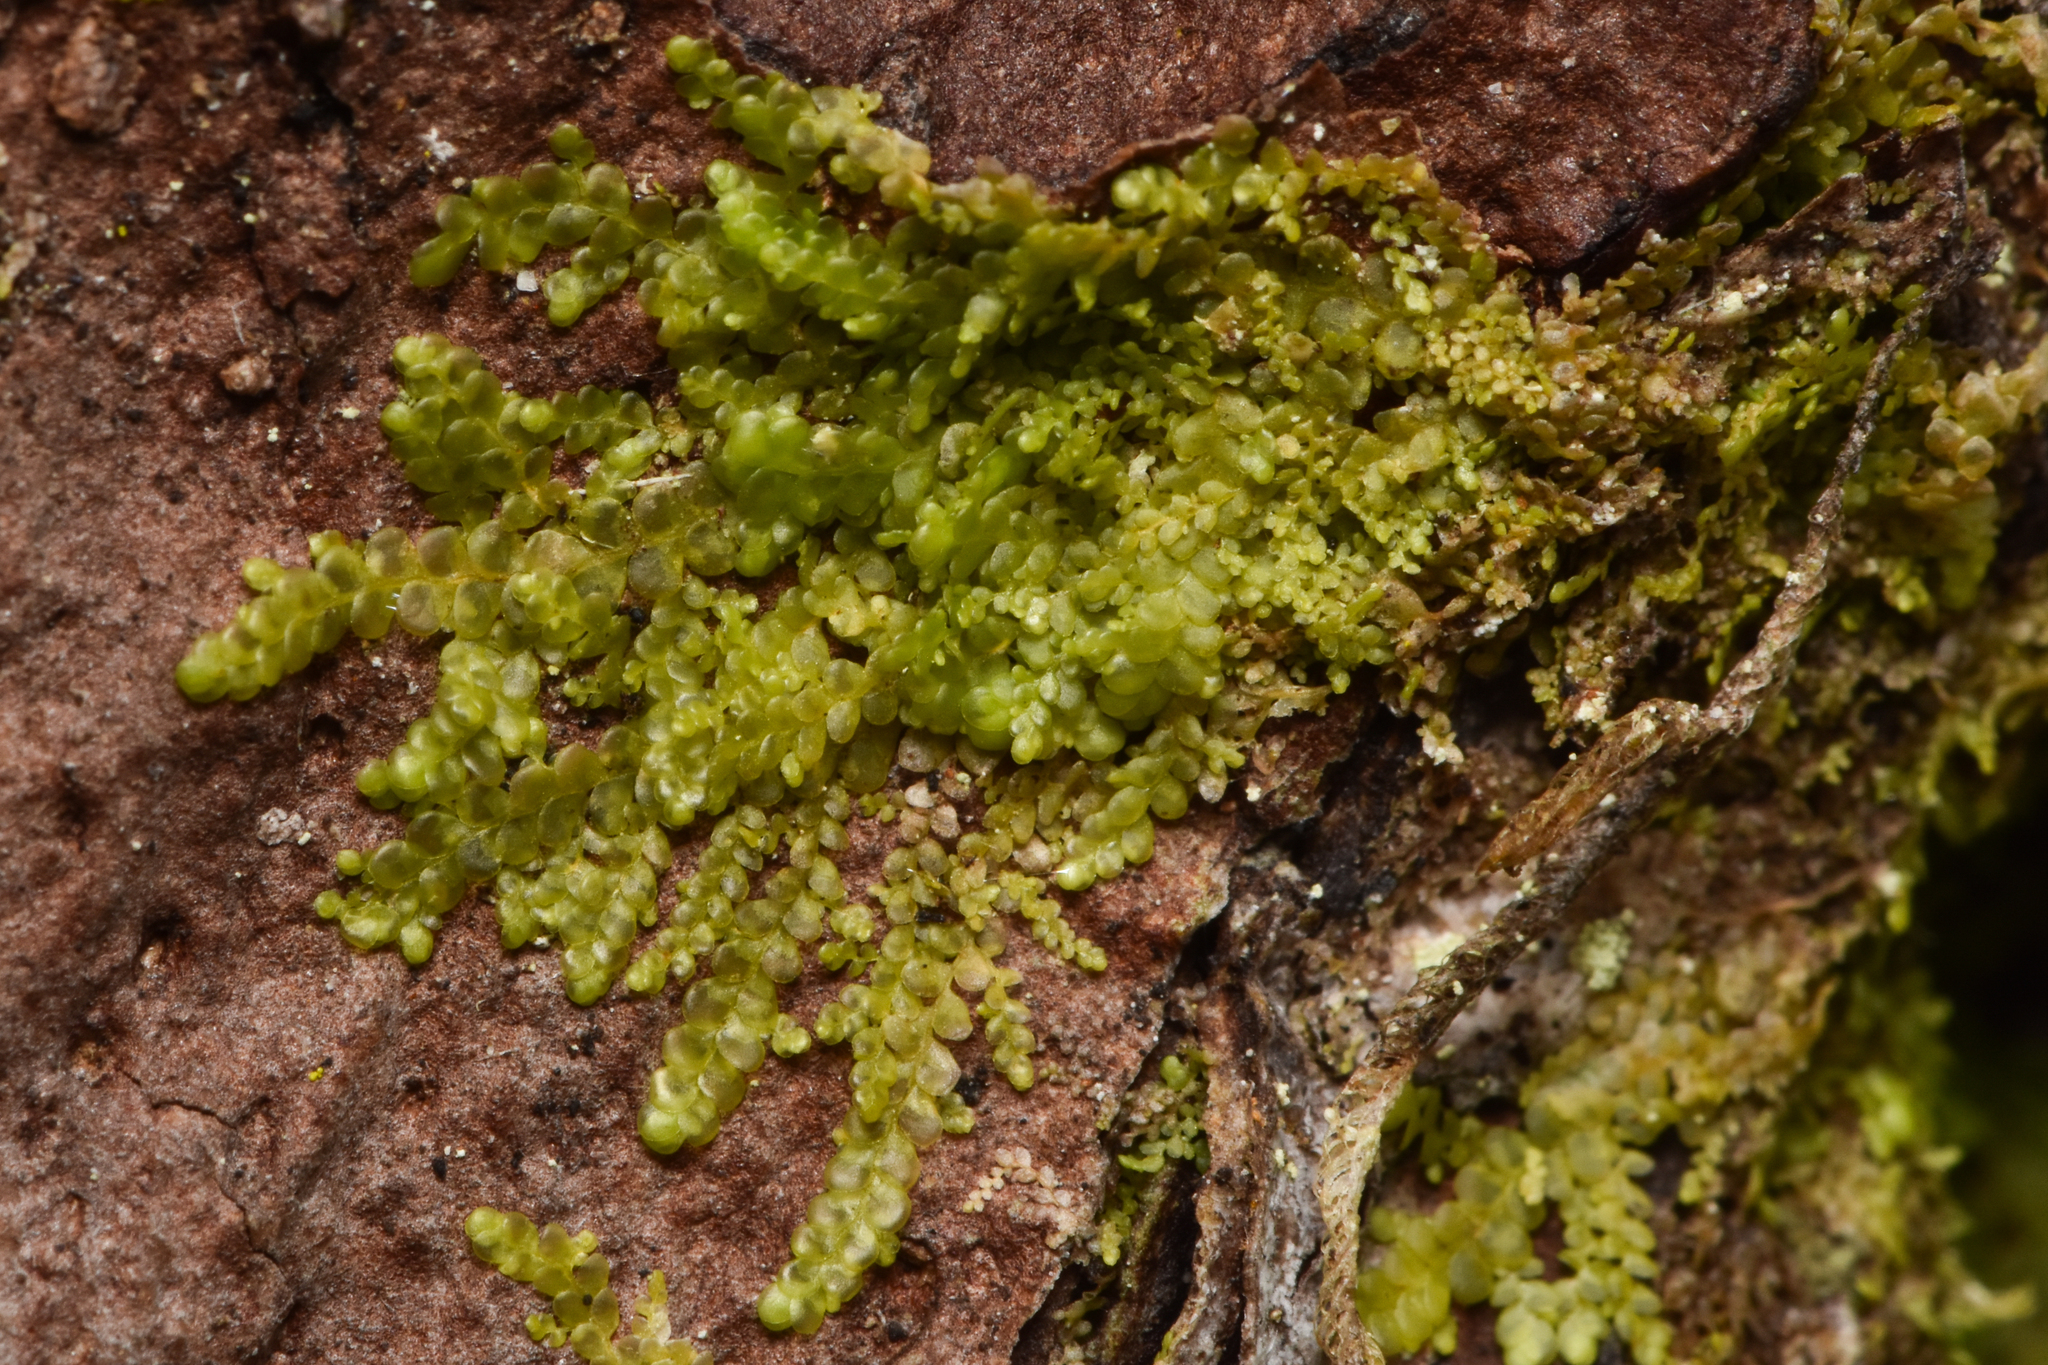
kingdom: Plantae
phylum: Marchantiophyta
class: Jungermanniopsida
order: Porellales
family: Radulaceae
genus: Radula
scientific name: Radula obtusiloba
